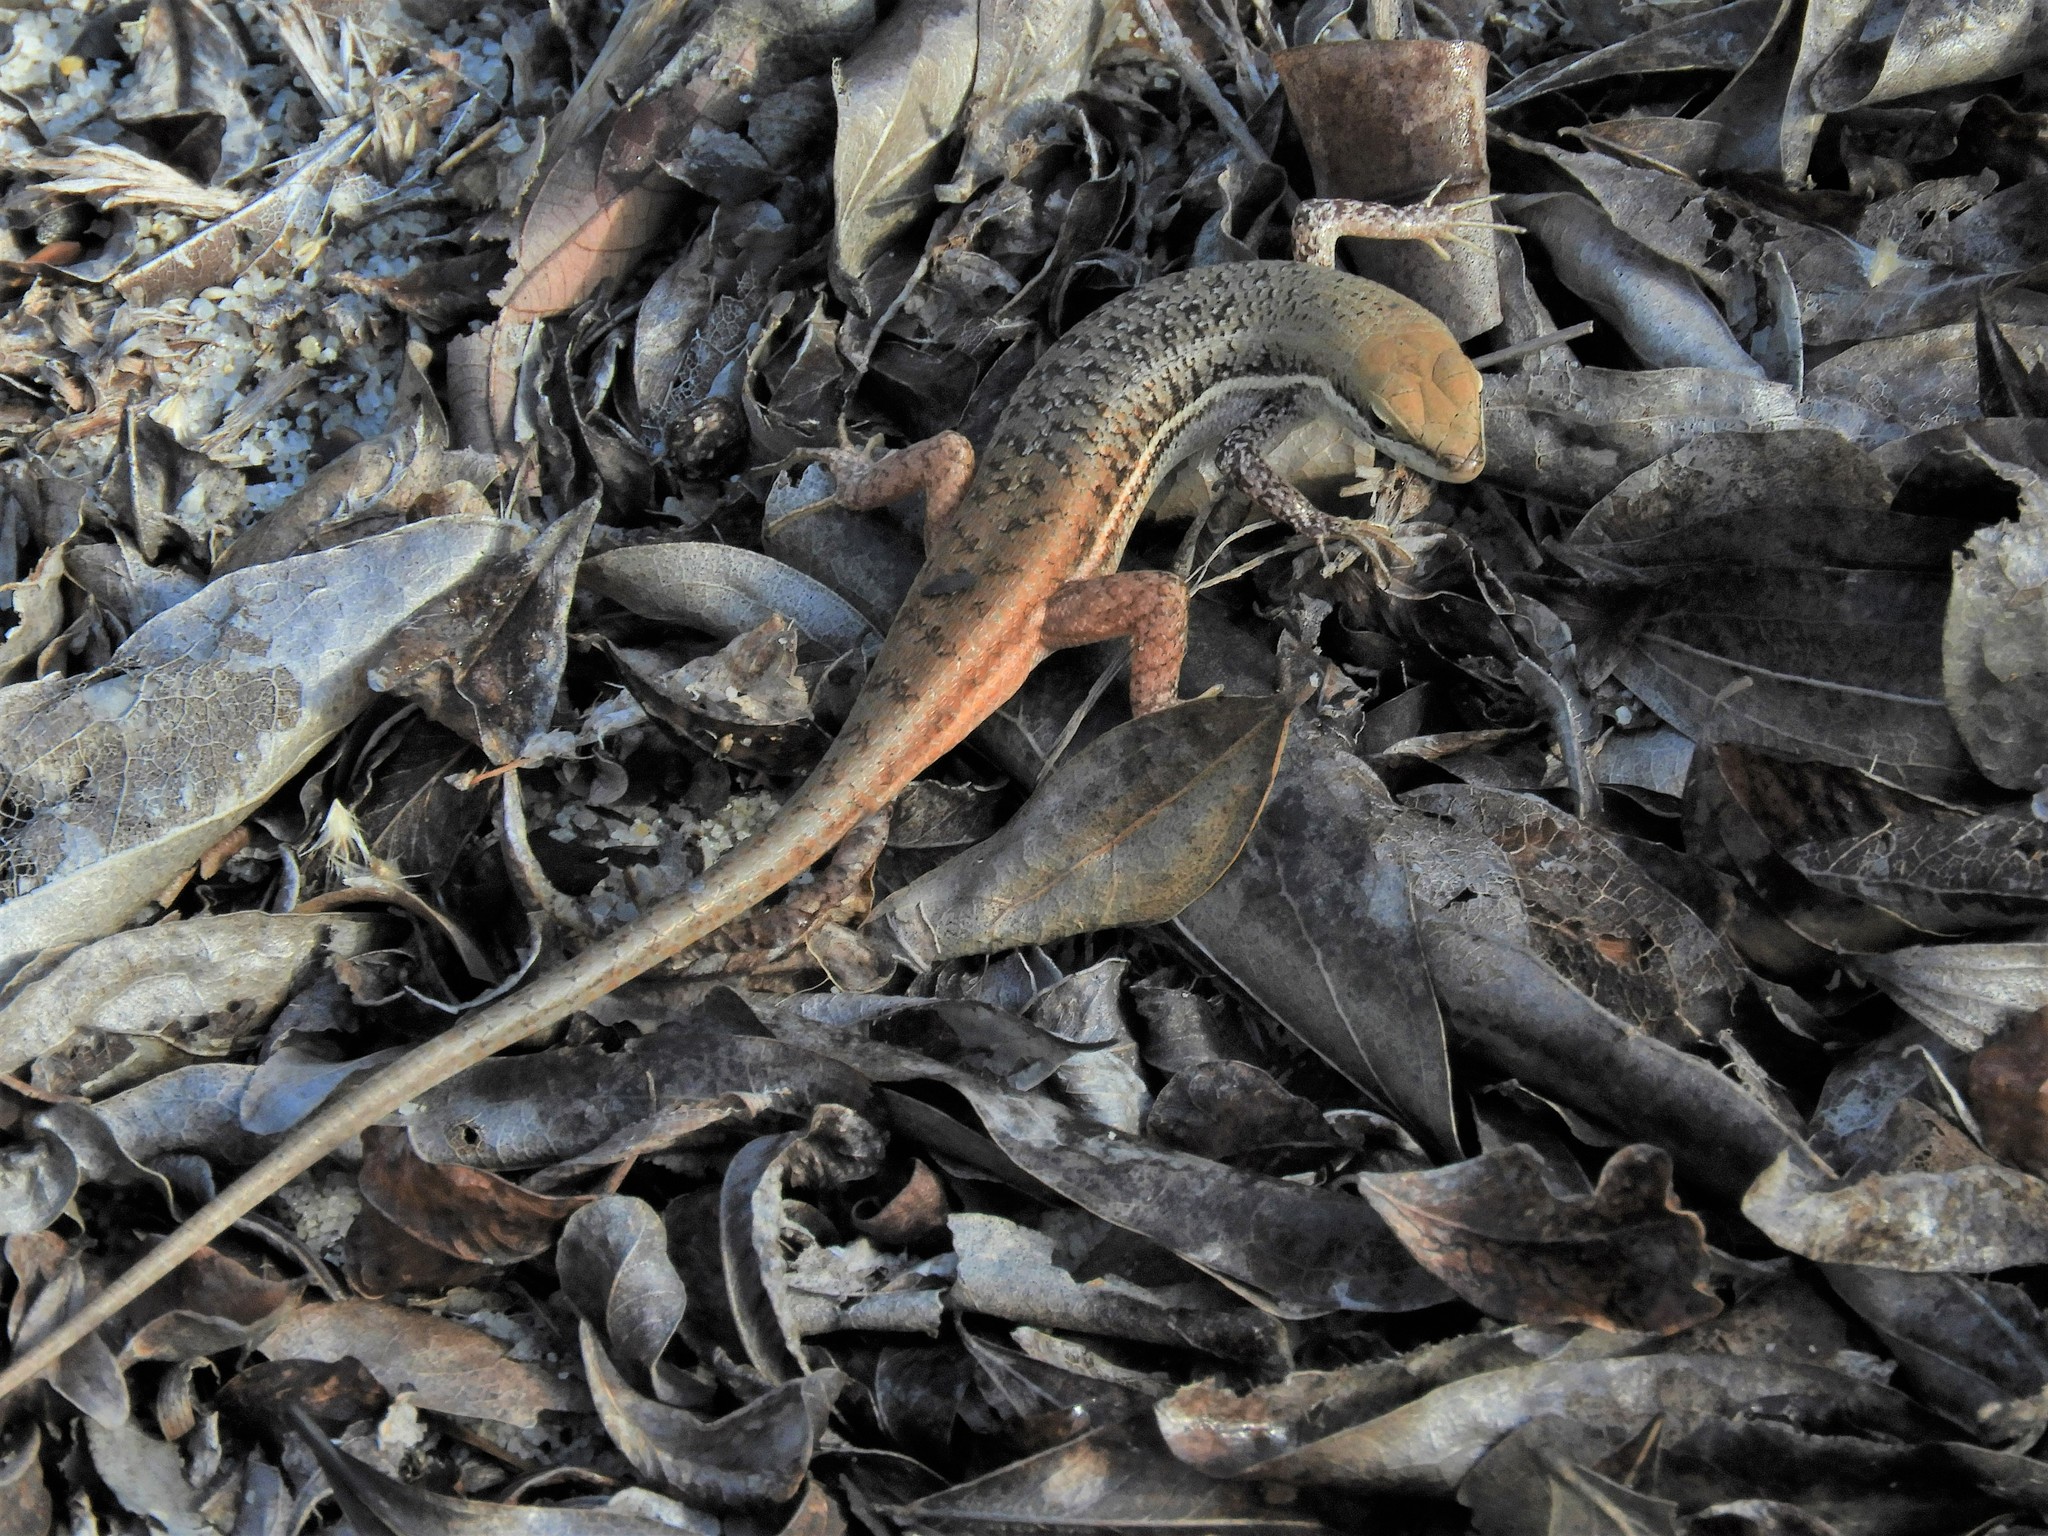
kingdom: Animalia
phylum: Chordata
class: Squamata
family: Scincidae
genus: Trachylepis
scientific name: Trachylepis varia
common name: Eastern variable skink
